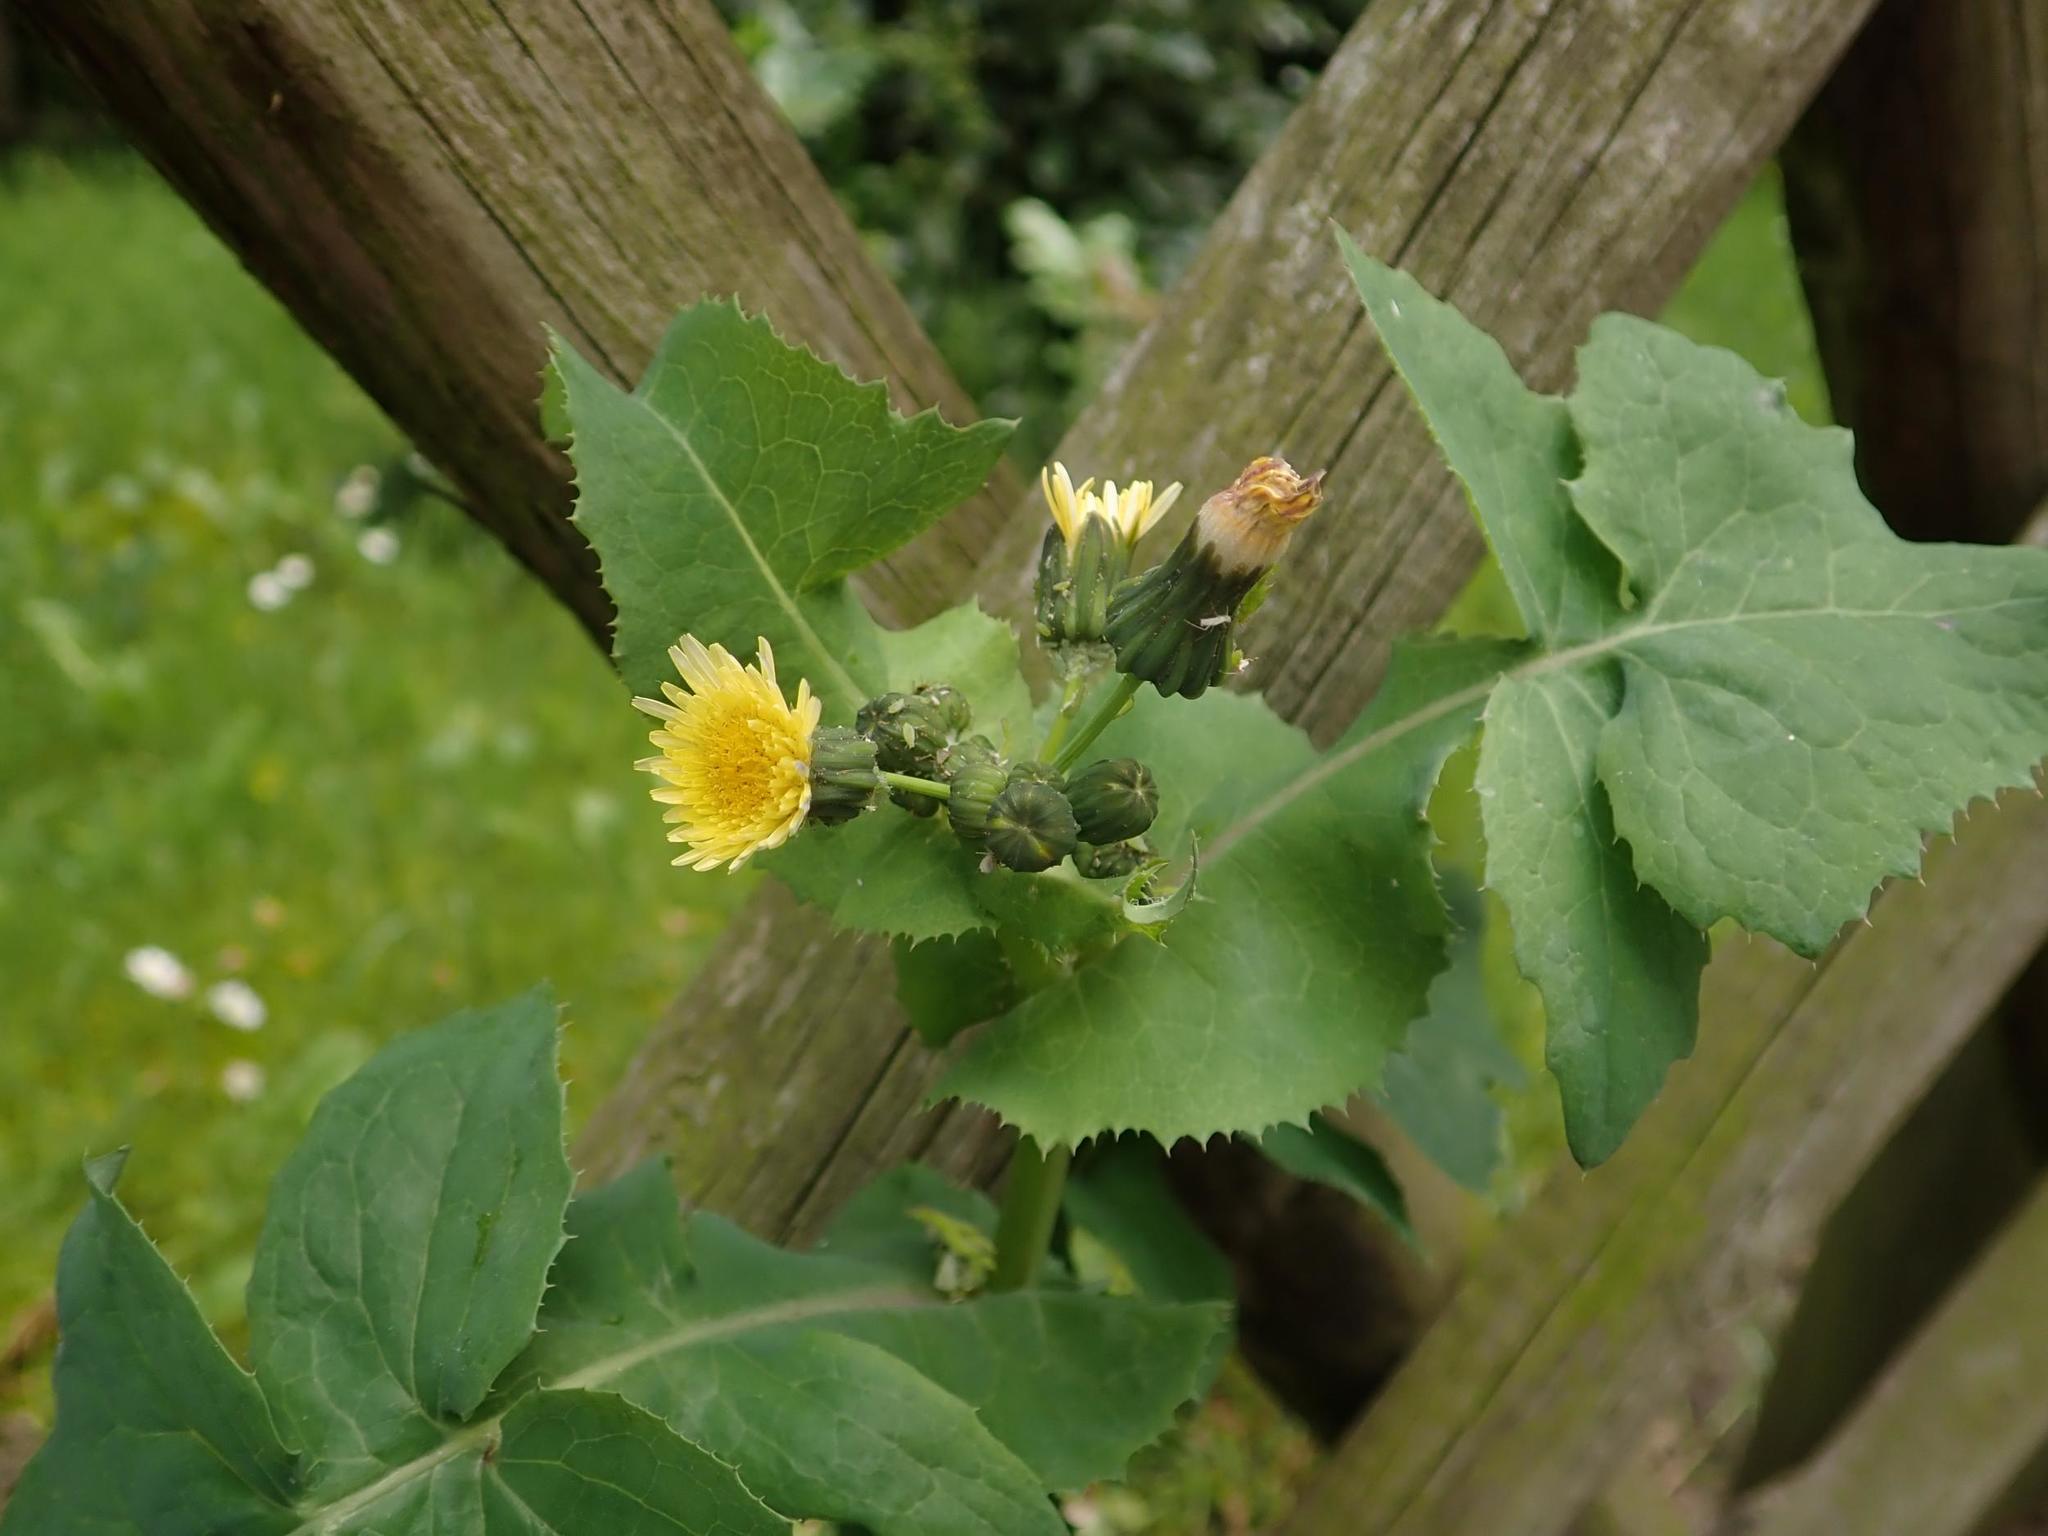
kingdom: Plantae
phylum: Tracheophyta
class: Magnoliopsida
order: Asterales
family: Asteraceae
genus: Sonchus
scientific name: Sonchus oleraceus
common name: Common sowthistle
